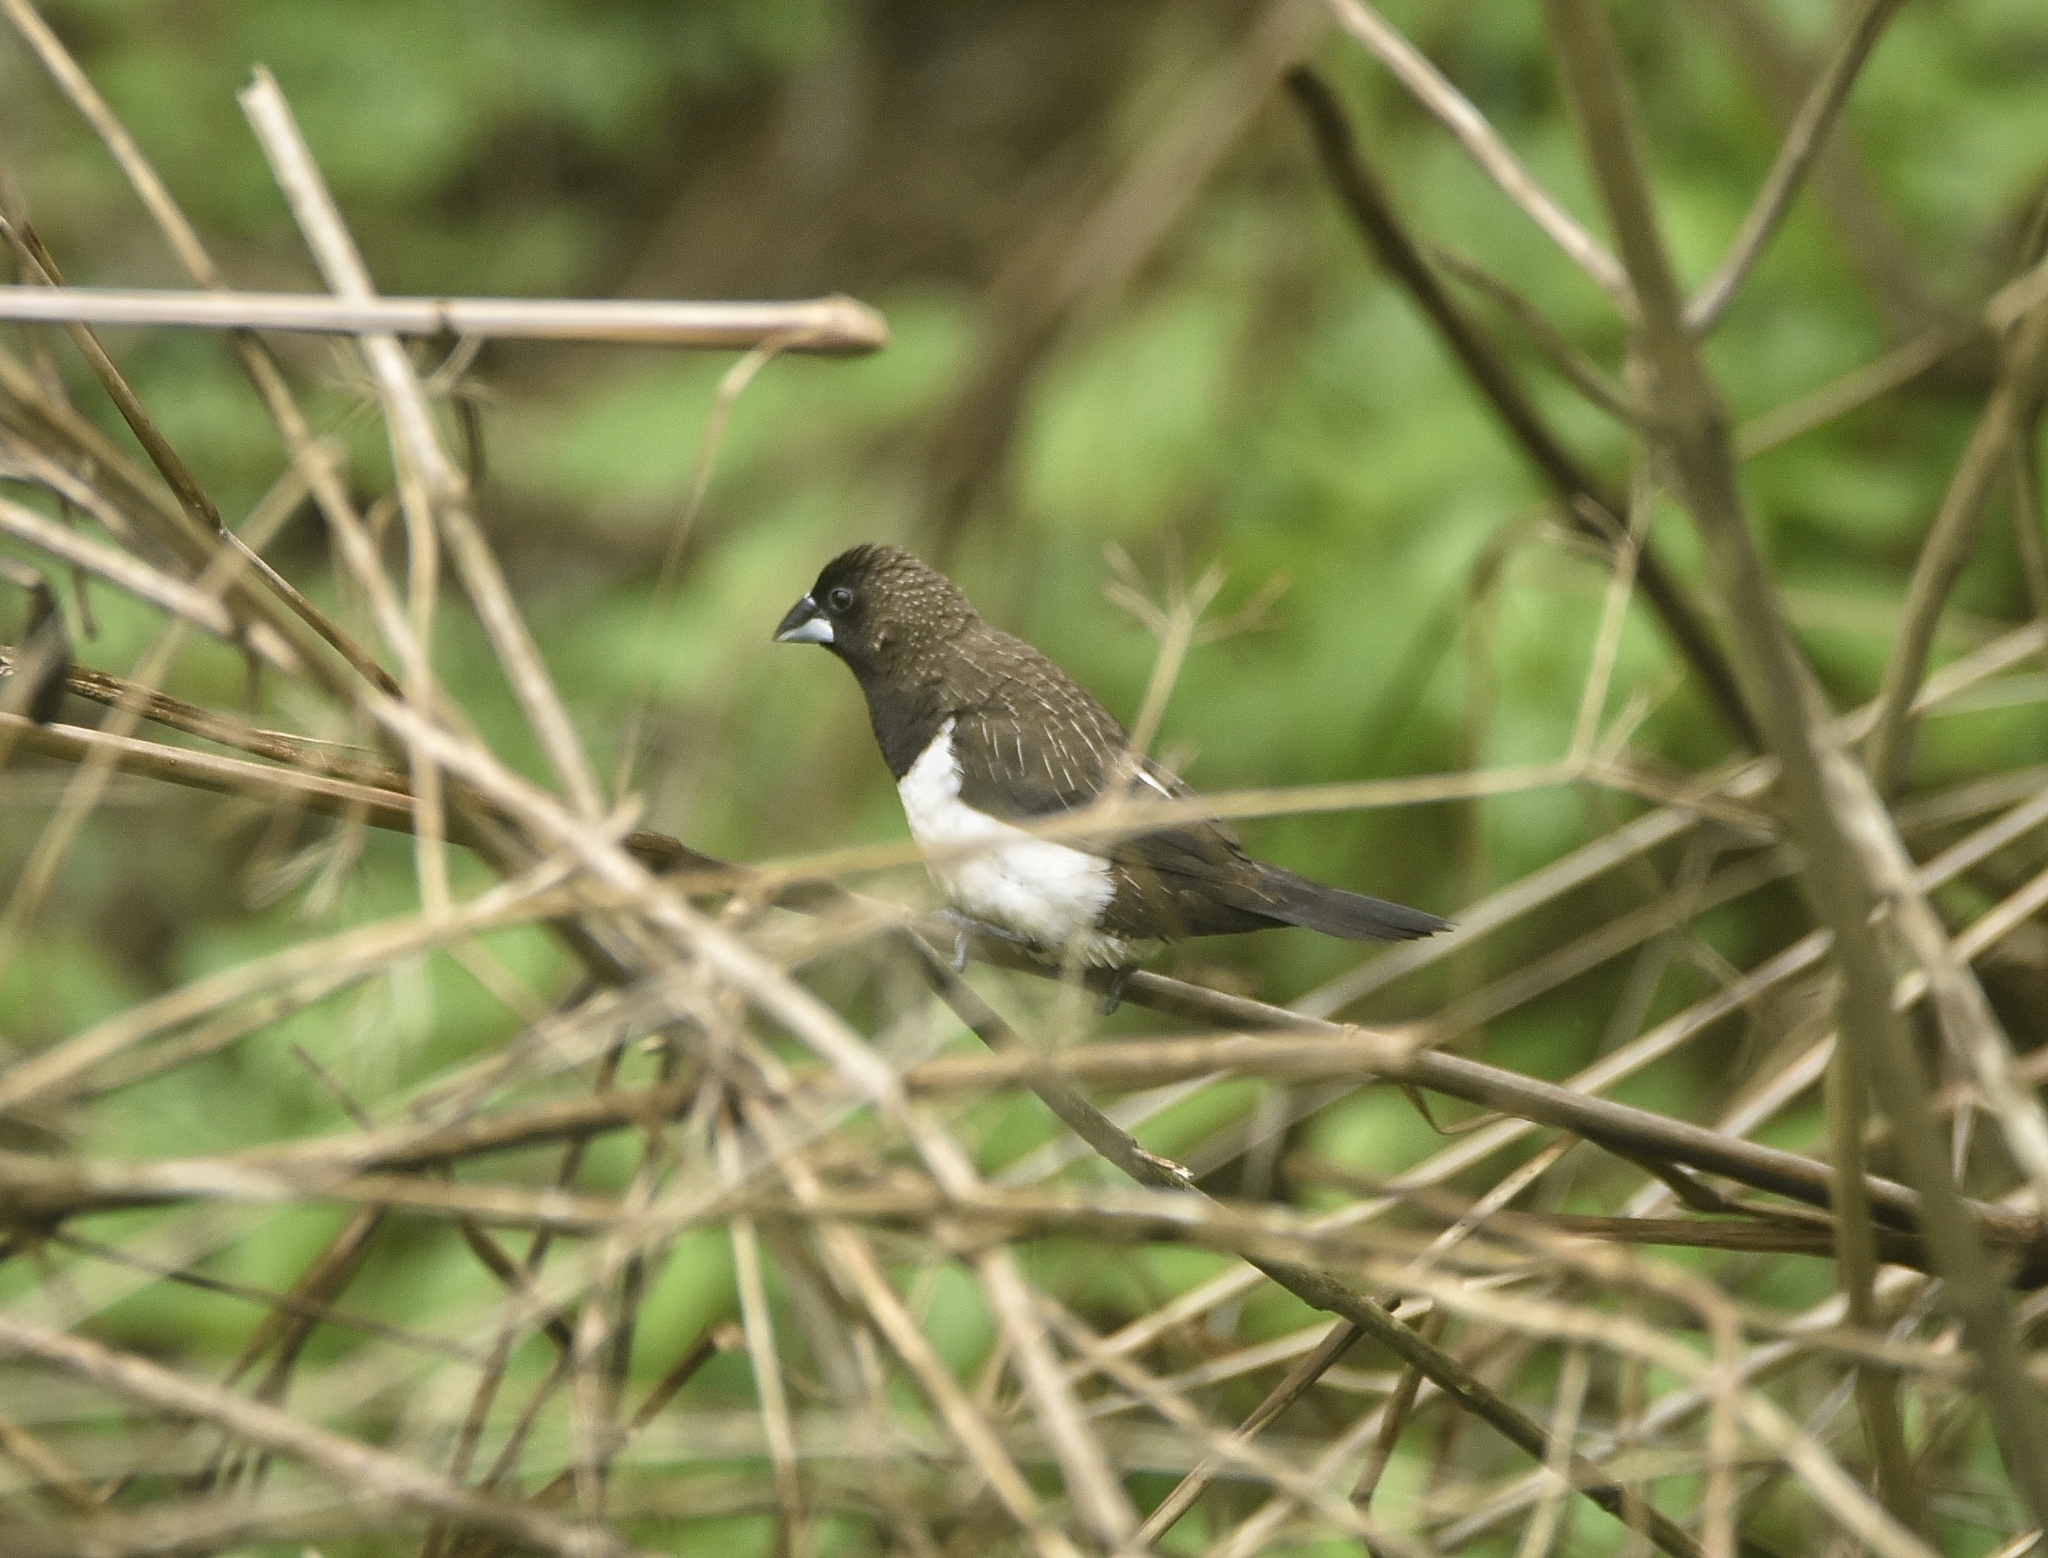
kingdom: Animalia
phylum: Chordata
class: Aves
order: Passeriformes
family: Estrildidae
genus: Lonchura
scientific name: Lonchura striata
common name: White-rumped munia
